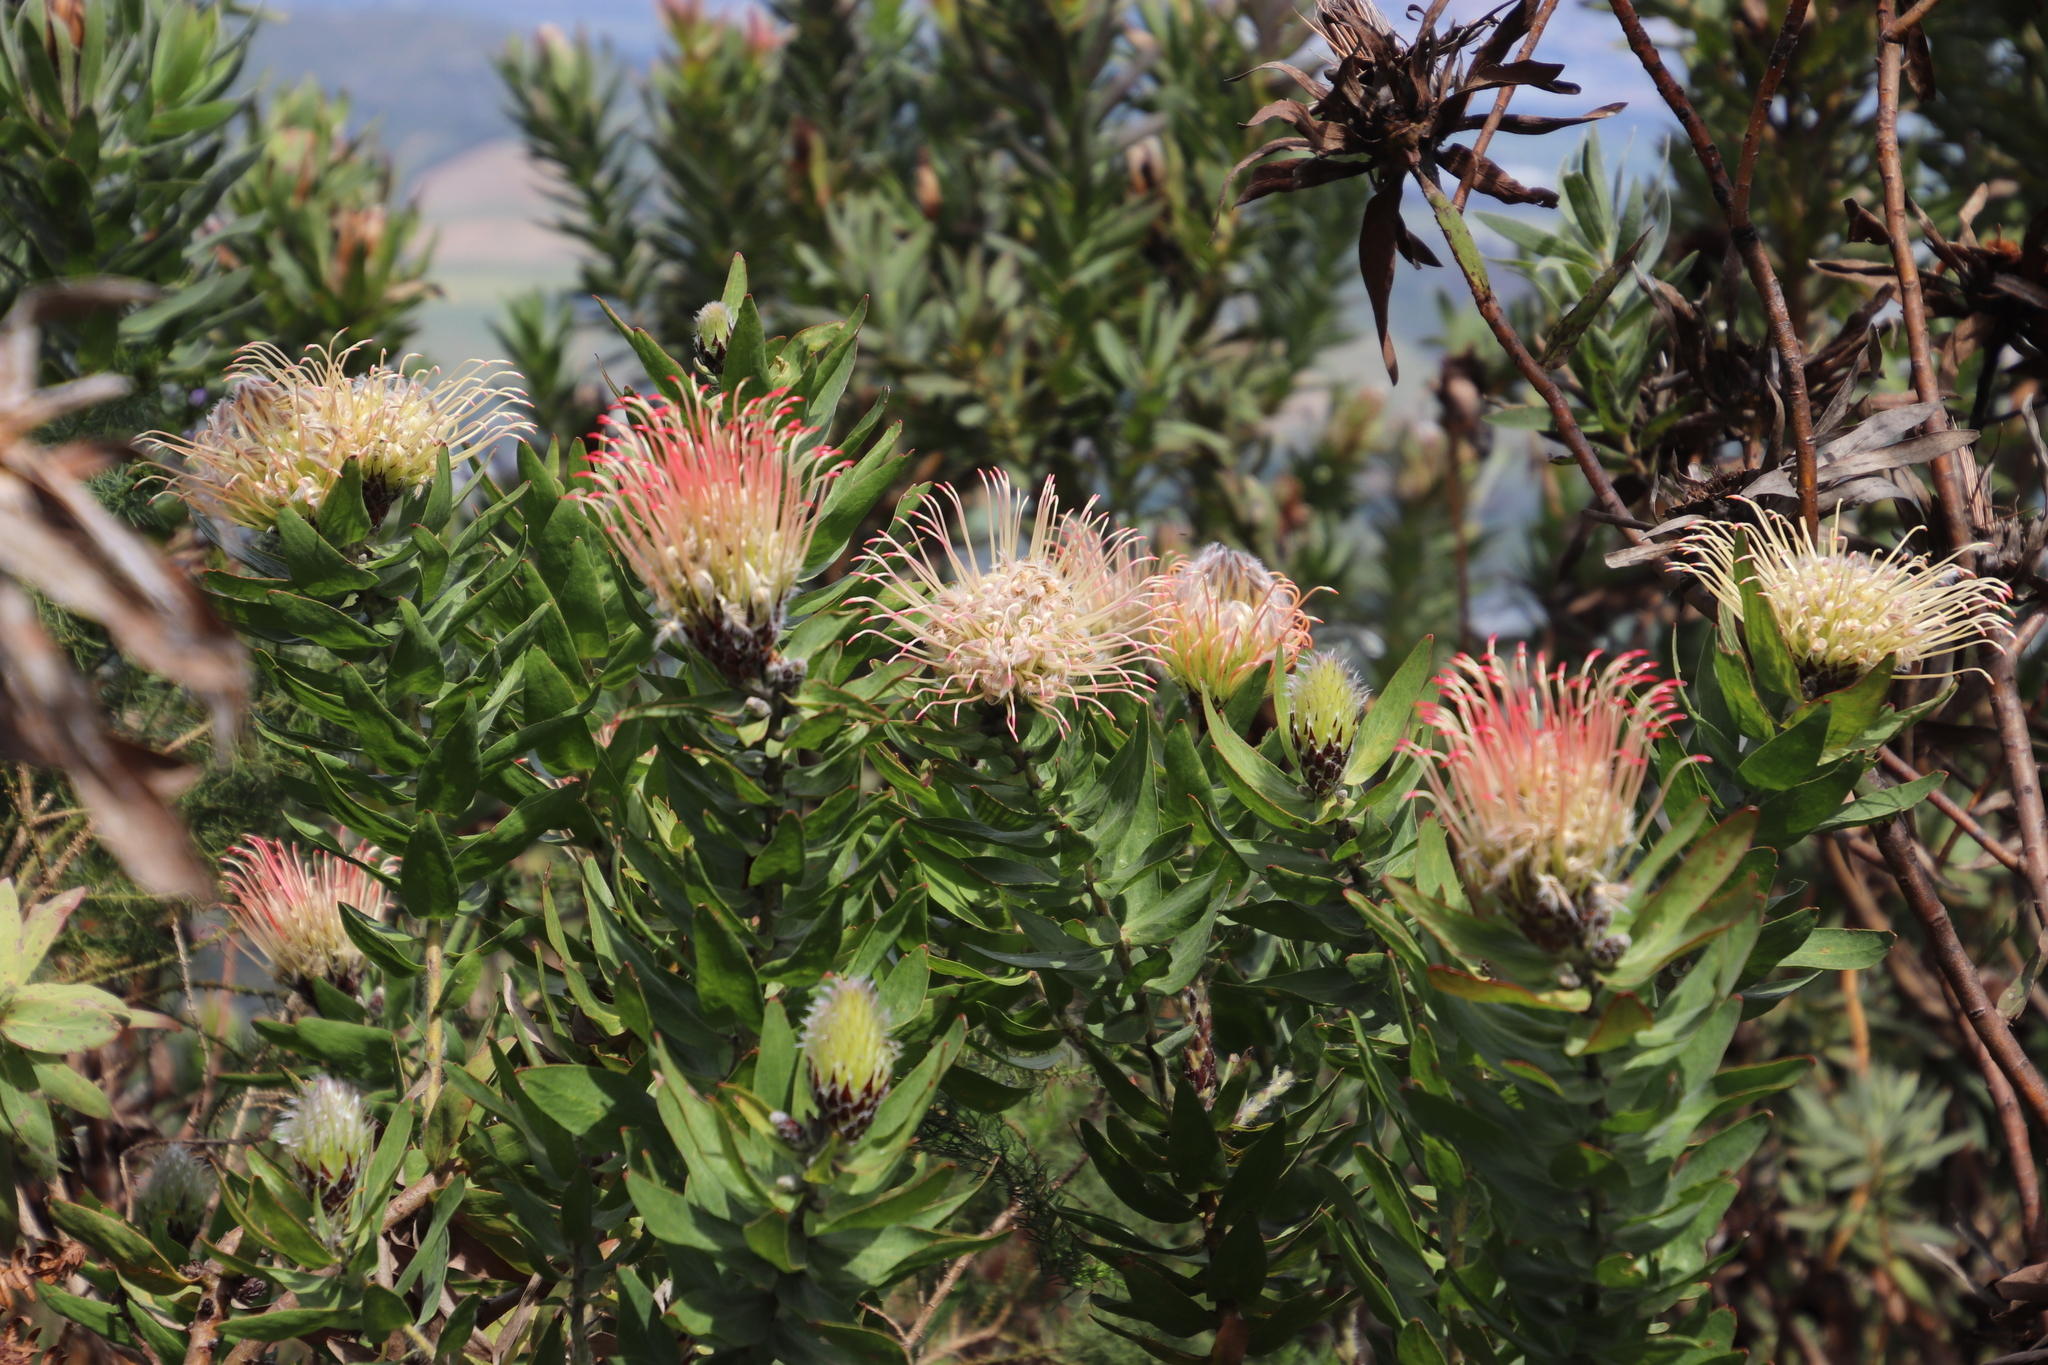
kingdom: Plantae
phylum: Tracheophyta
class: Magnoliopsida
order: Proteales
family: Proteaceae
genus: Leucospermum
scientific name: Leucospermum gueinzii
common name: Kloof fountain pincushion
